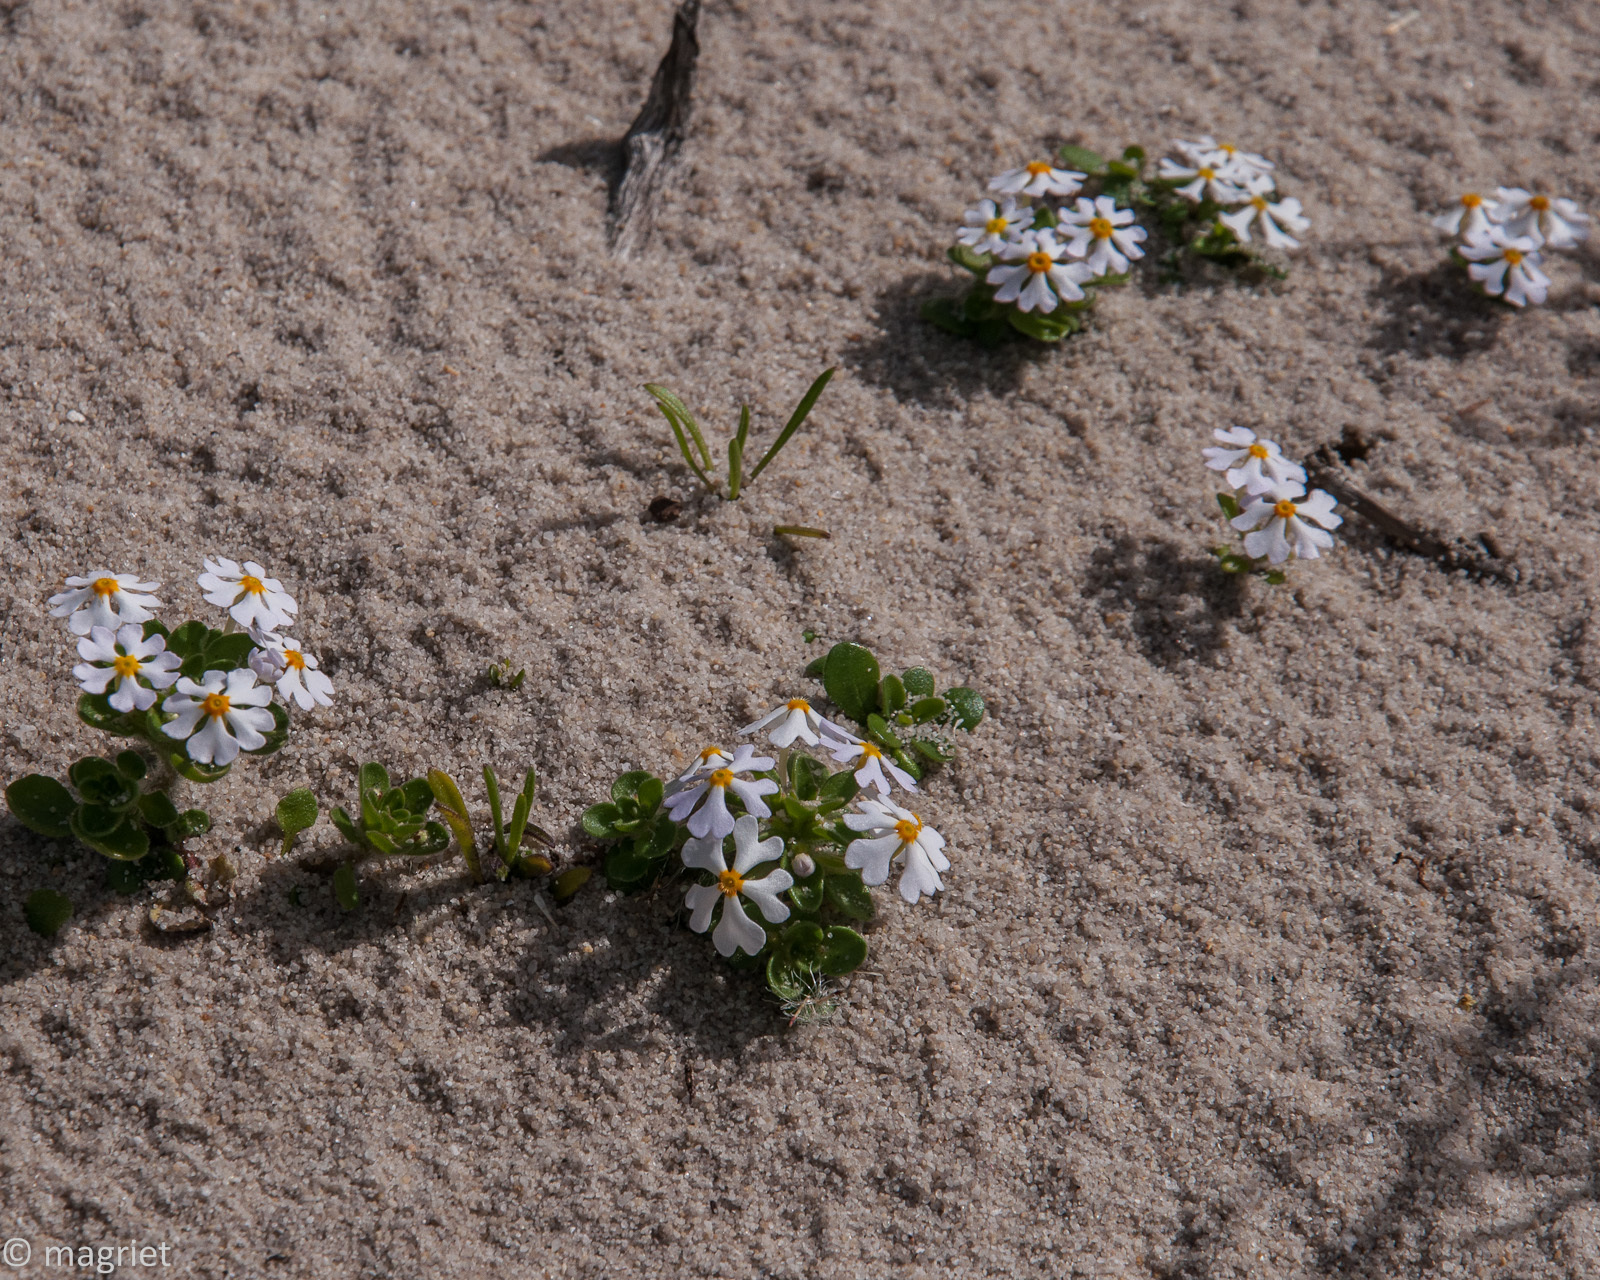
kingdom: Plantae
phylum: Tracheophyta
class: Magnoliopsida
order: Lamiales
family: Scrophulariaceae
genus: Zaluzianskya
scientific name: Zaluzianskya villosa
